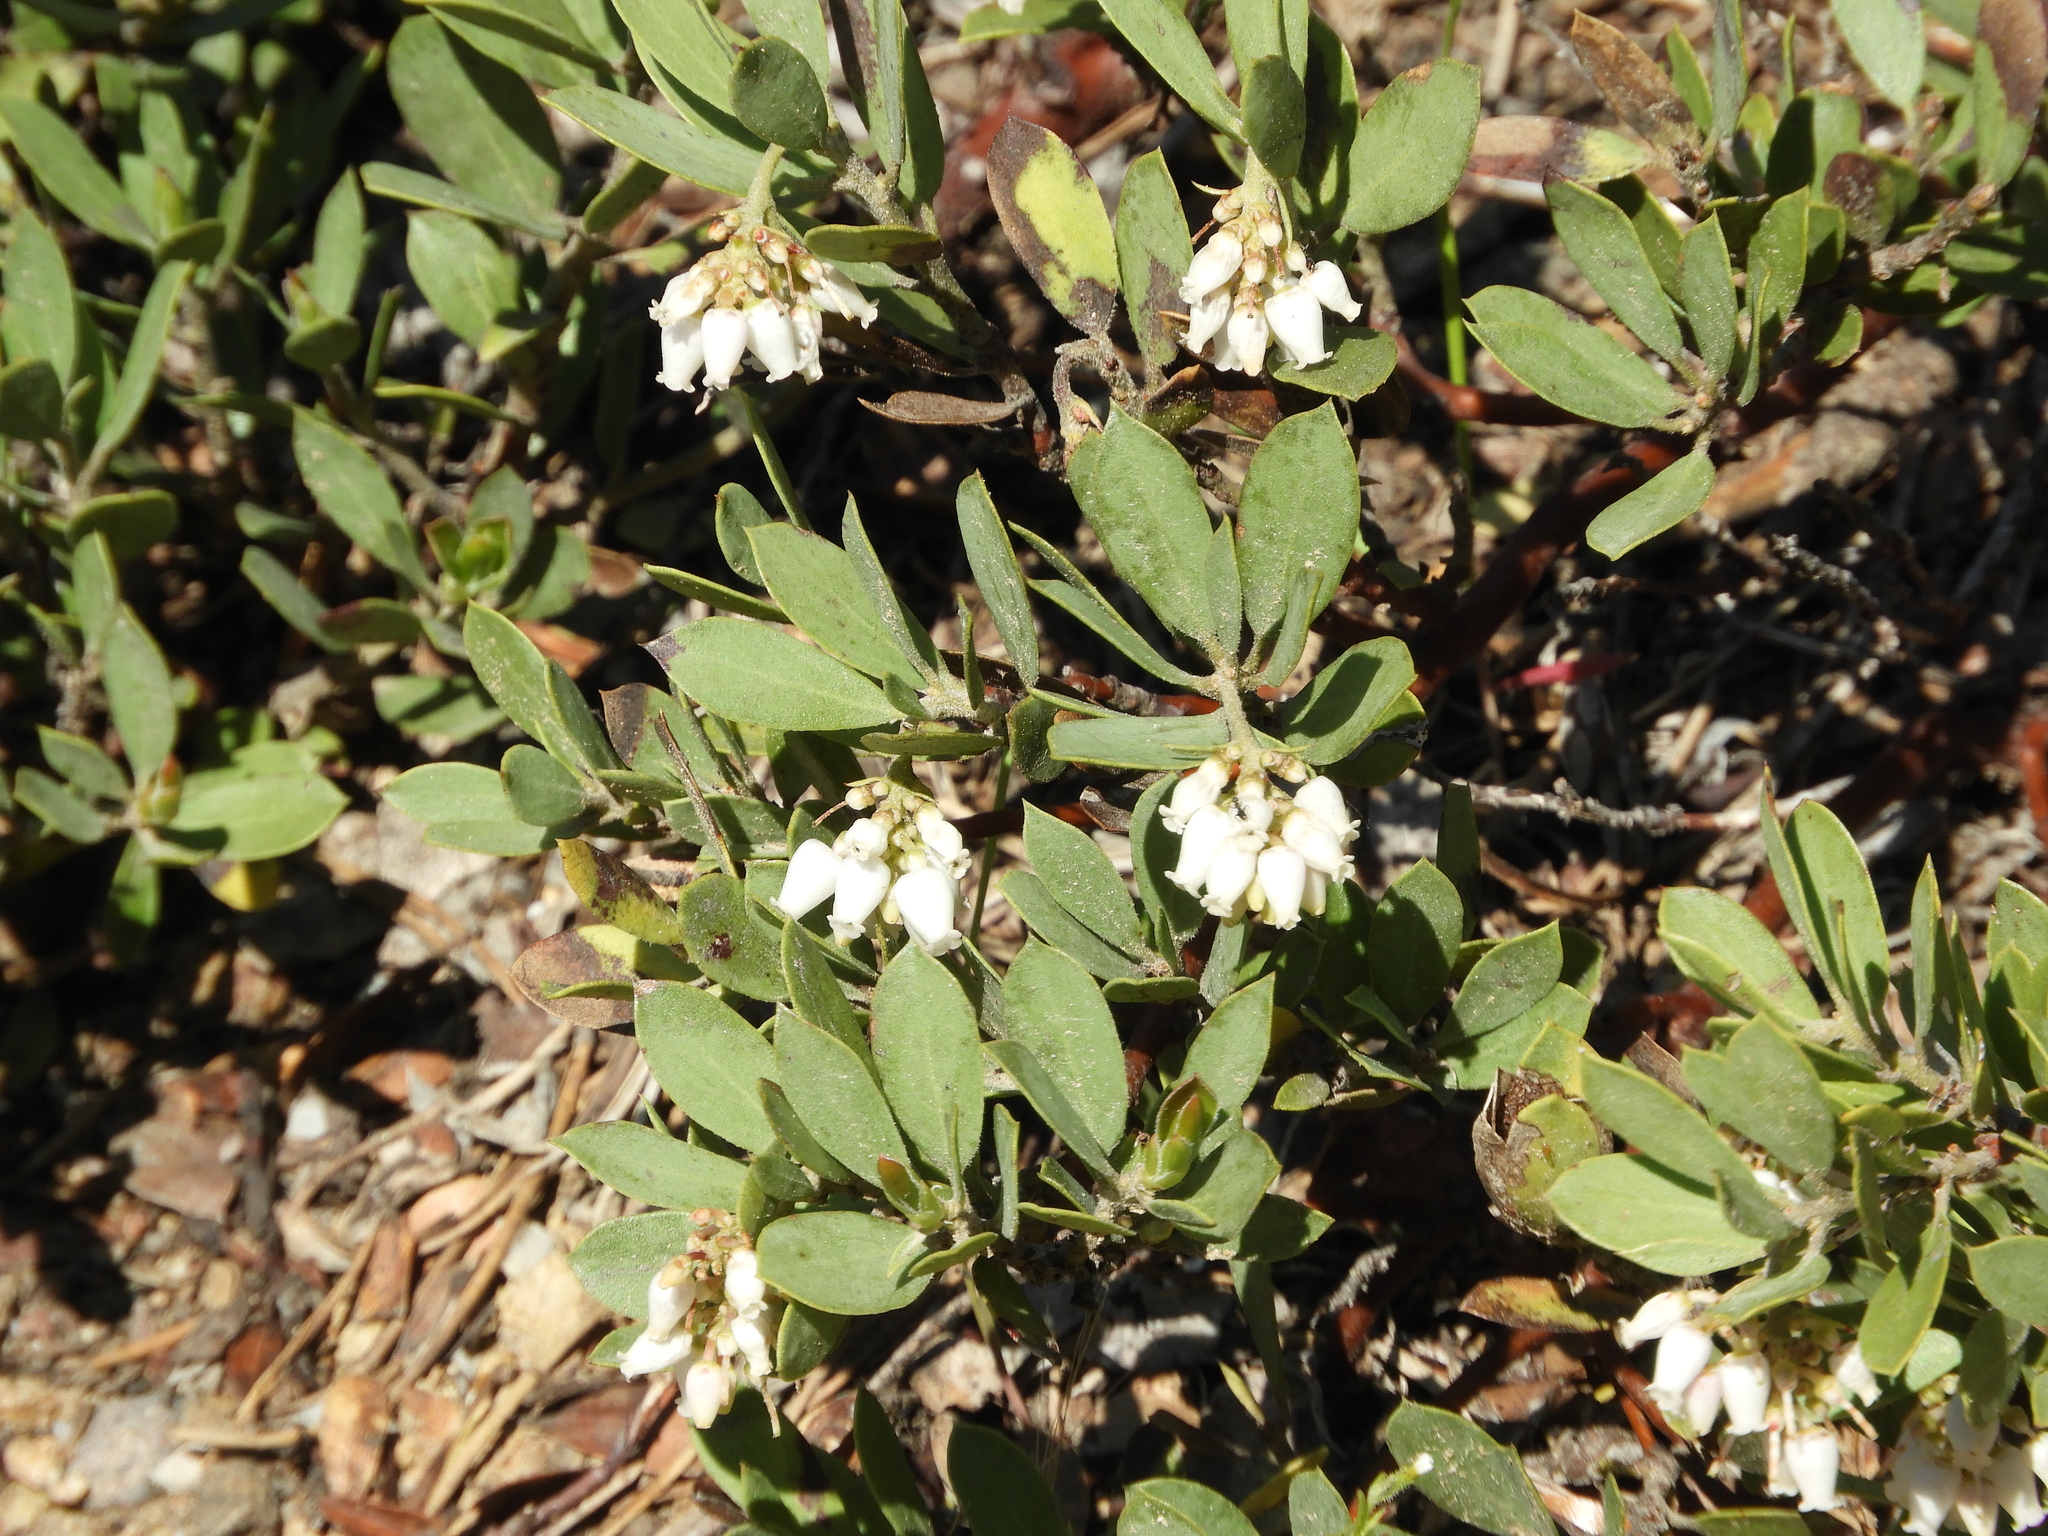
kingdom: Plantae
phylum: Tracheophyta
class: Magnoliopsida
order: Ericales
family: Ericaceae
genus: Arctostaphylos
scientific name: Arctostaphylos nevadensis
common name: Pinemat manzanita
